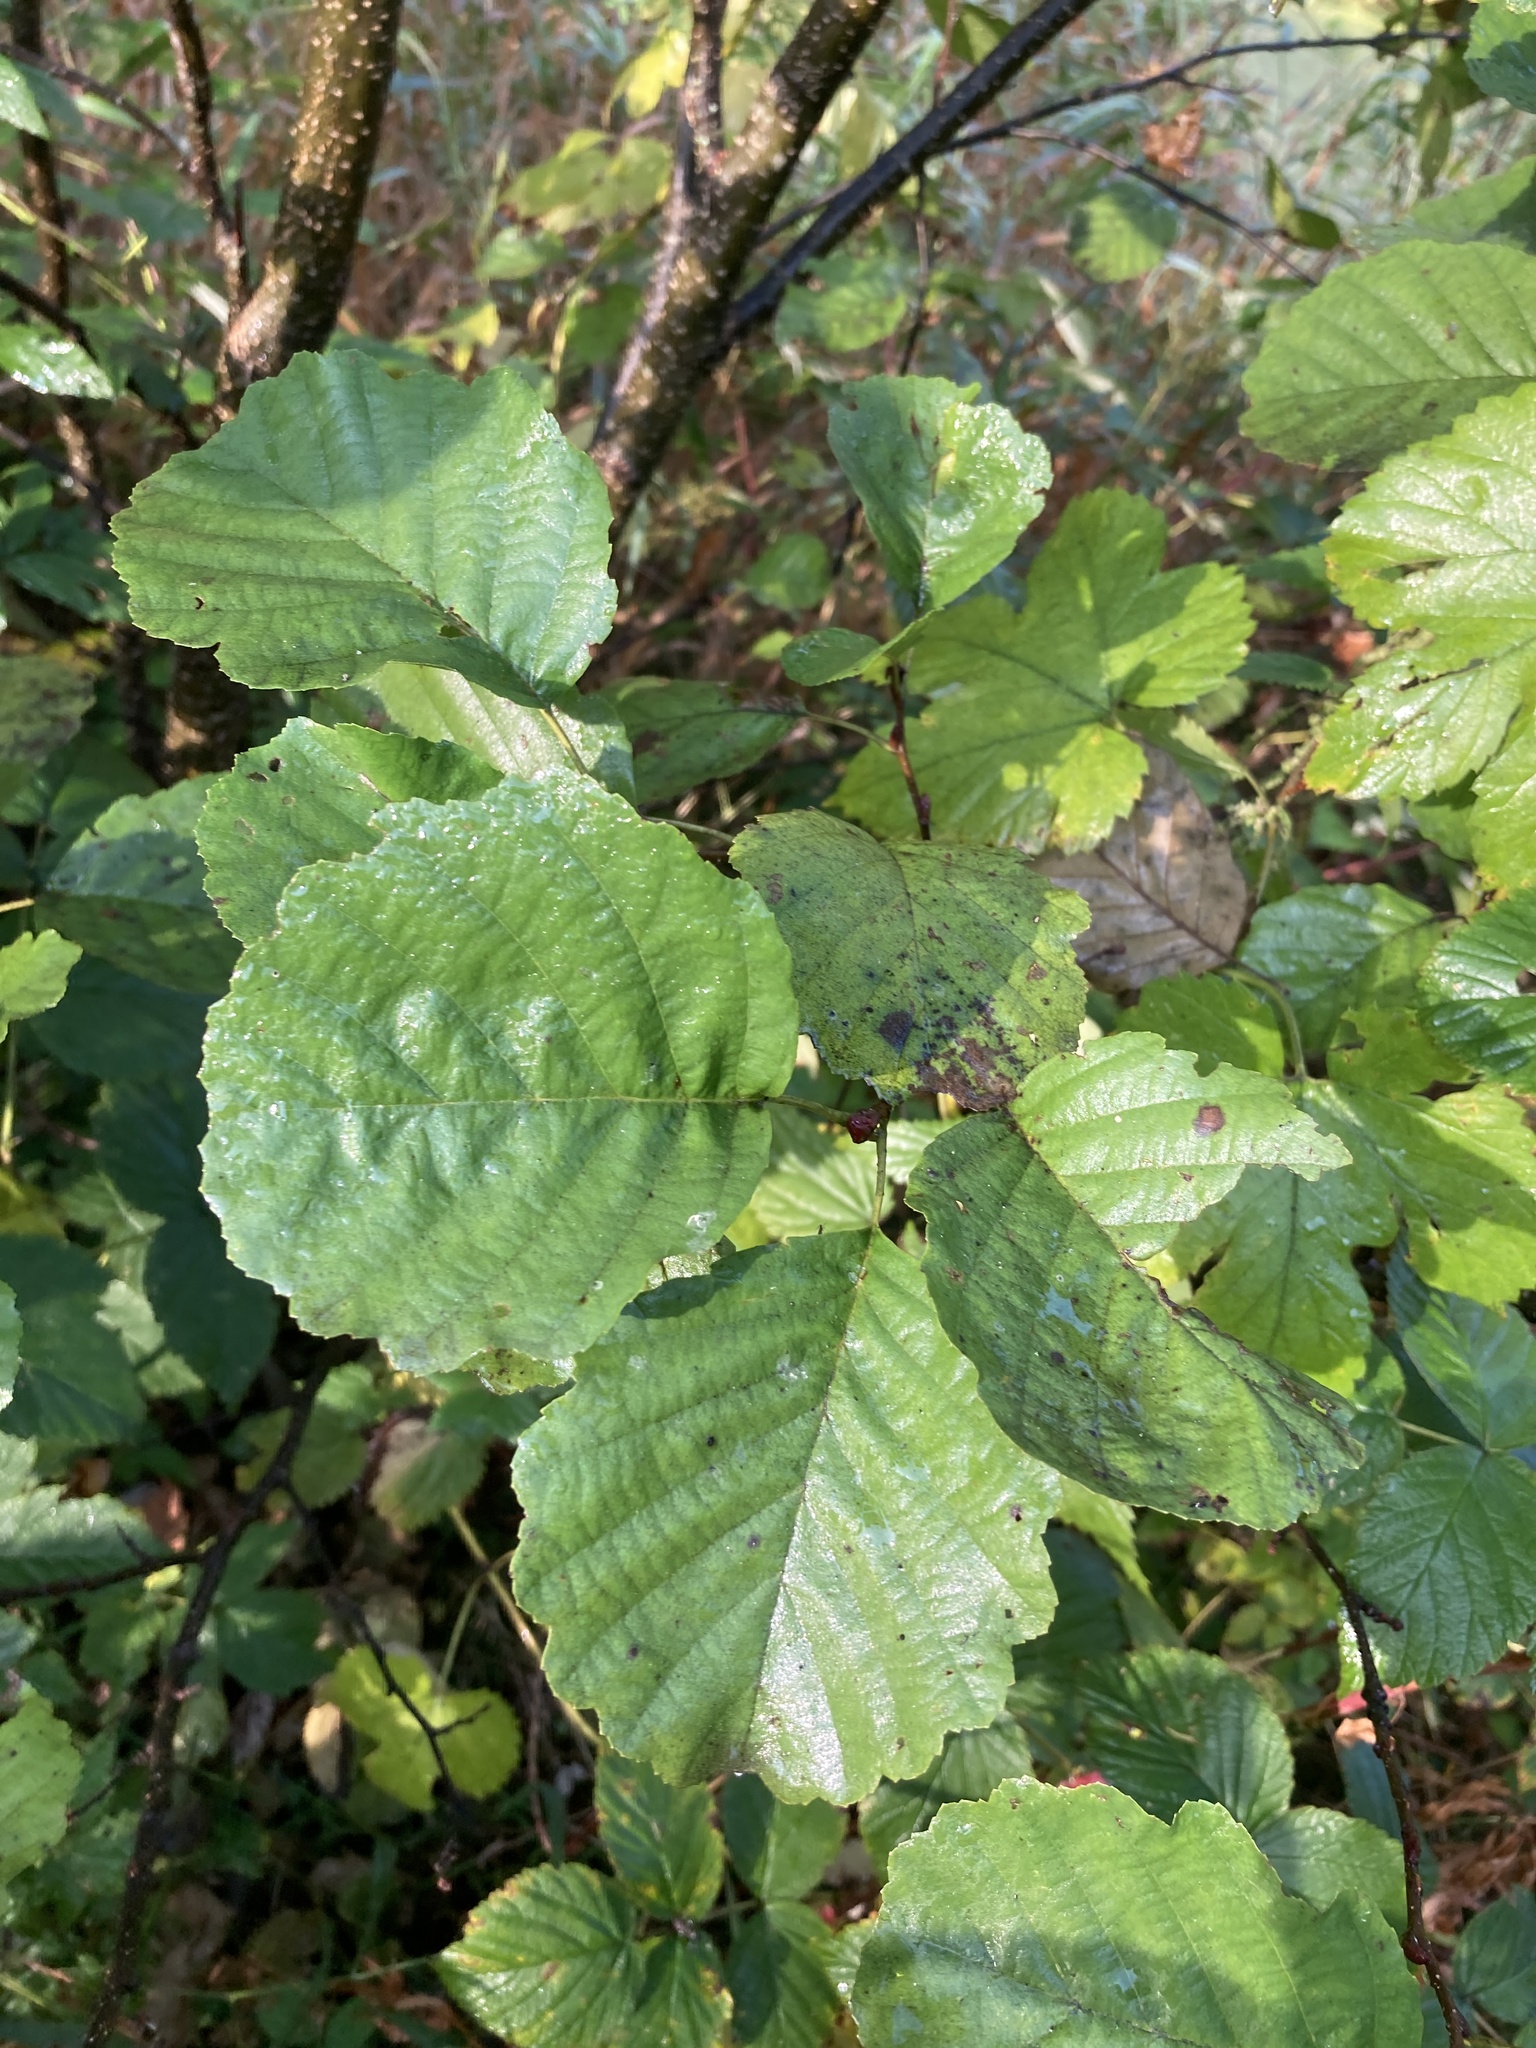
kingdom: Plantae
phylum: Tracheophyta
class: Magnoliopsida
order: Fagales
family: Betulaceae
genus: Alnus
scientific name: Alnus glutinosa
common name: Black alder
